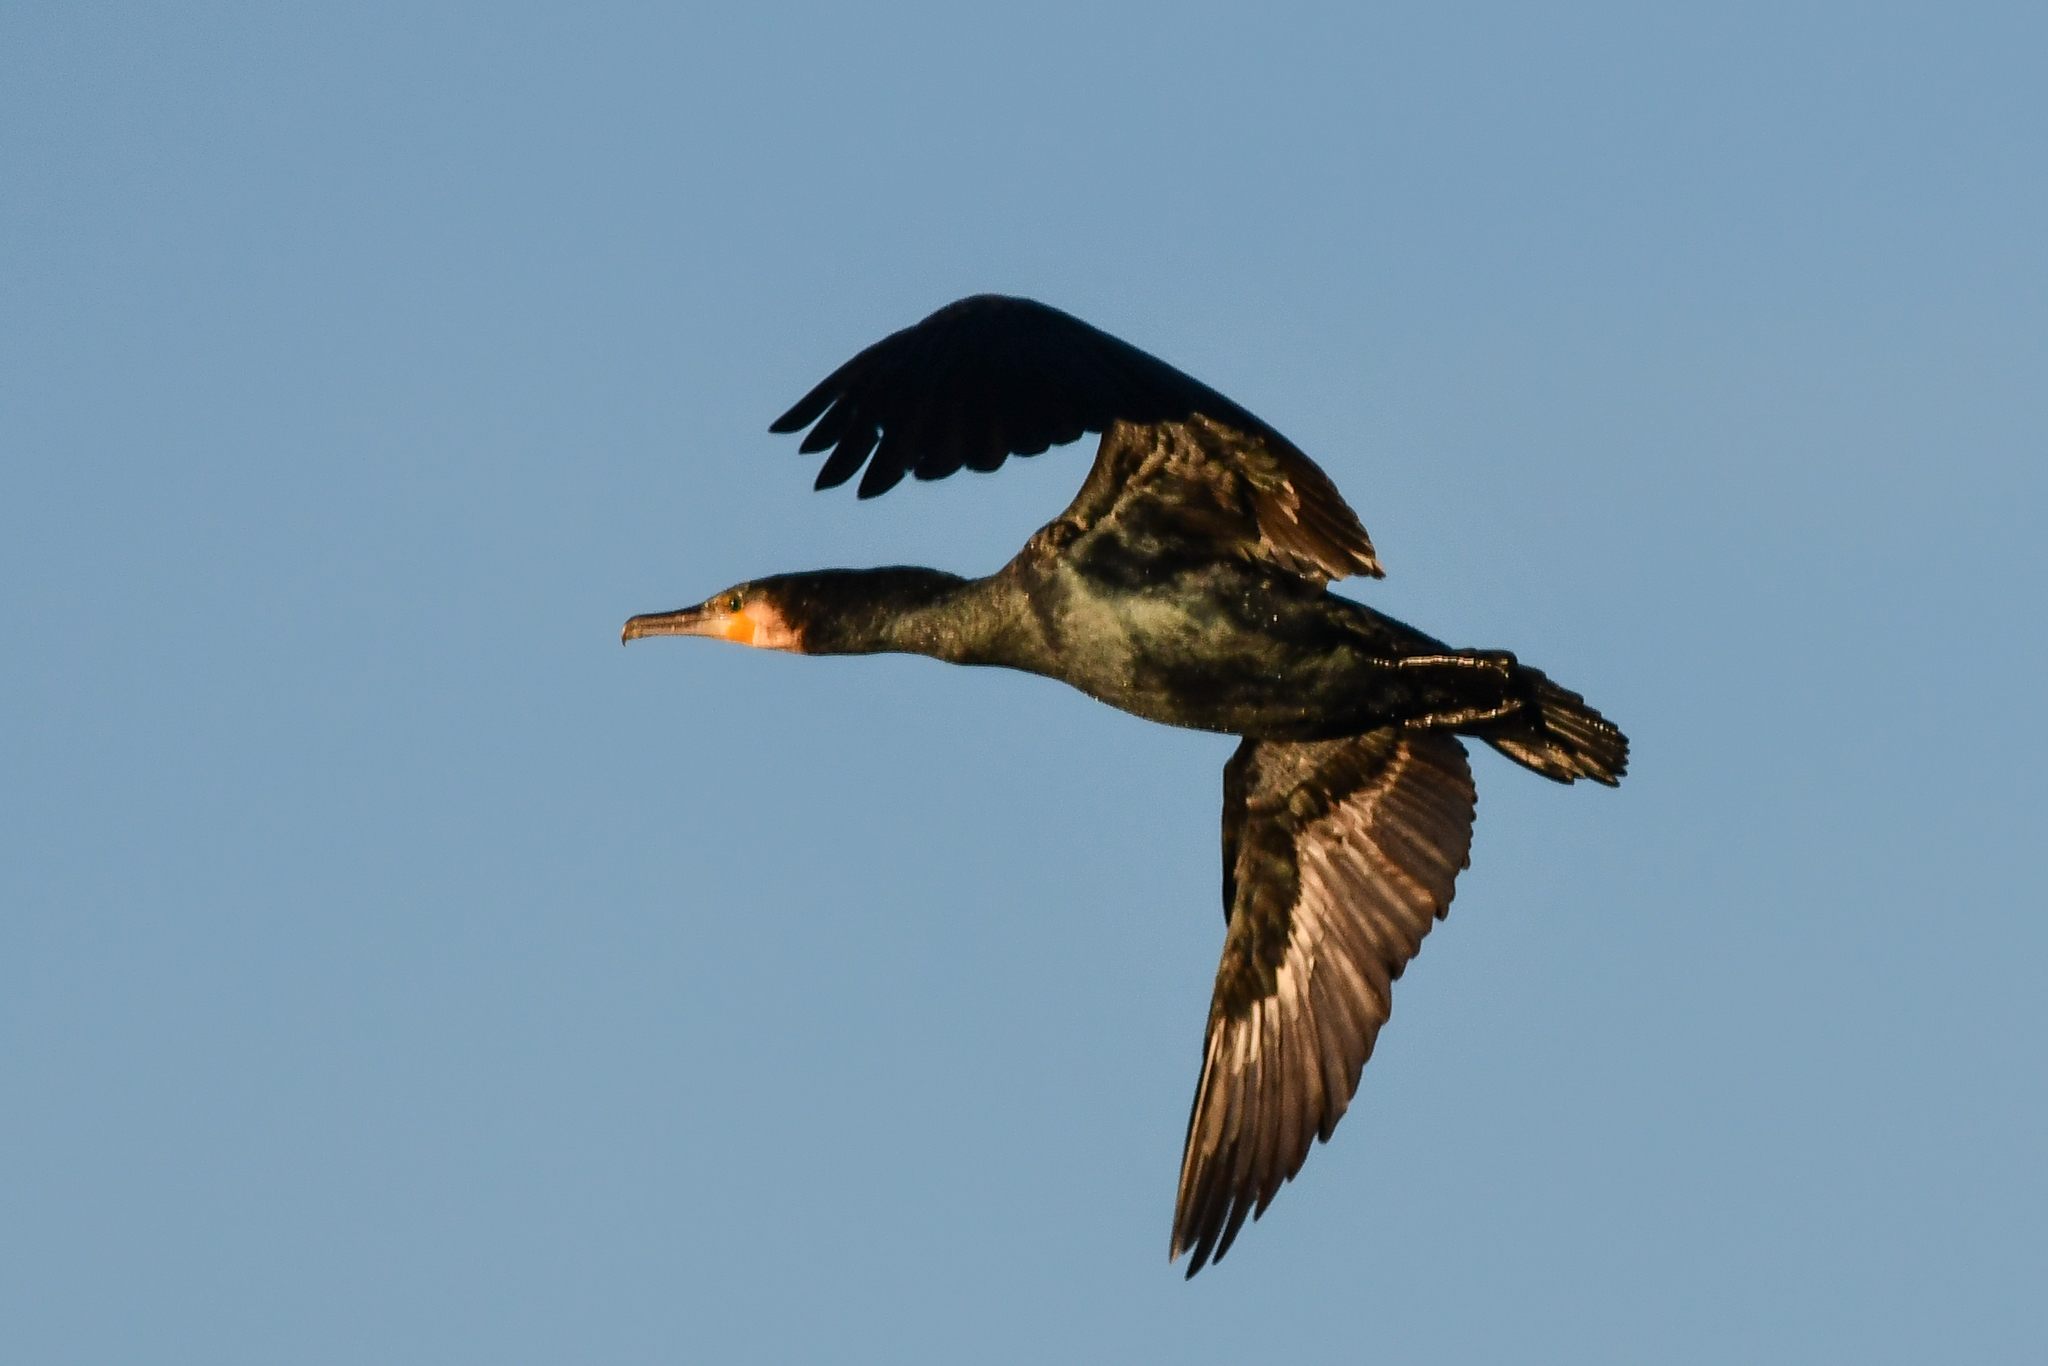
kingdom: Animalia
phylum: Chordata
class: Aves
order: Suliformes
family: Phalacrocoracidae
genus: Phalacrocorax
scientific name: Phalacrocorax carbo
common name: Great cormorant
